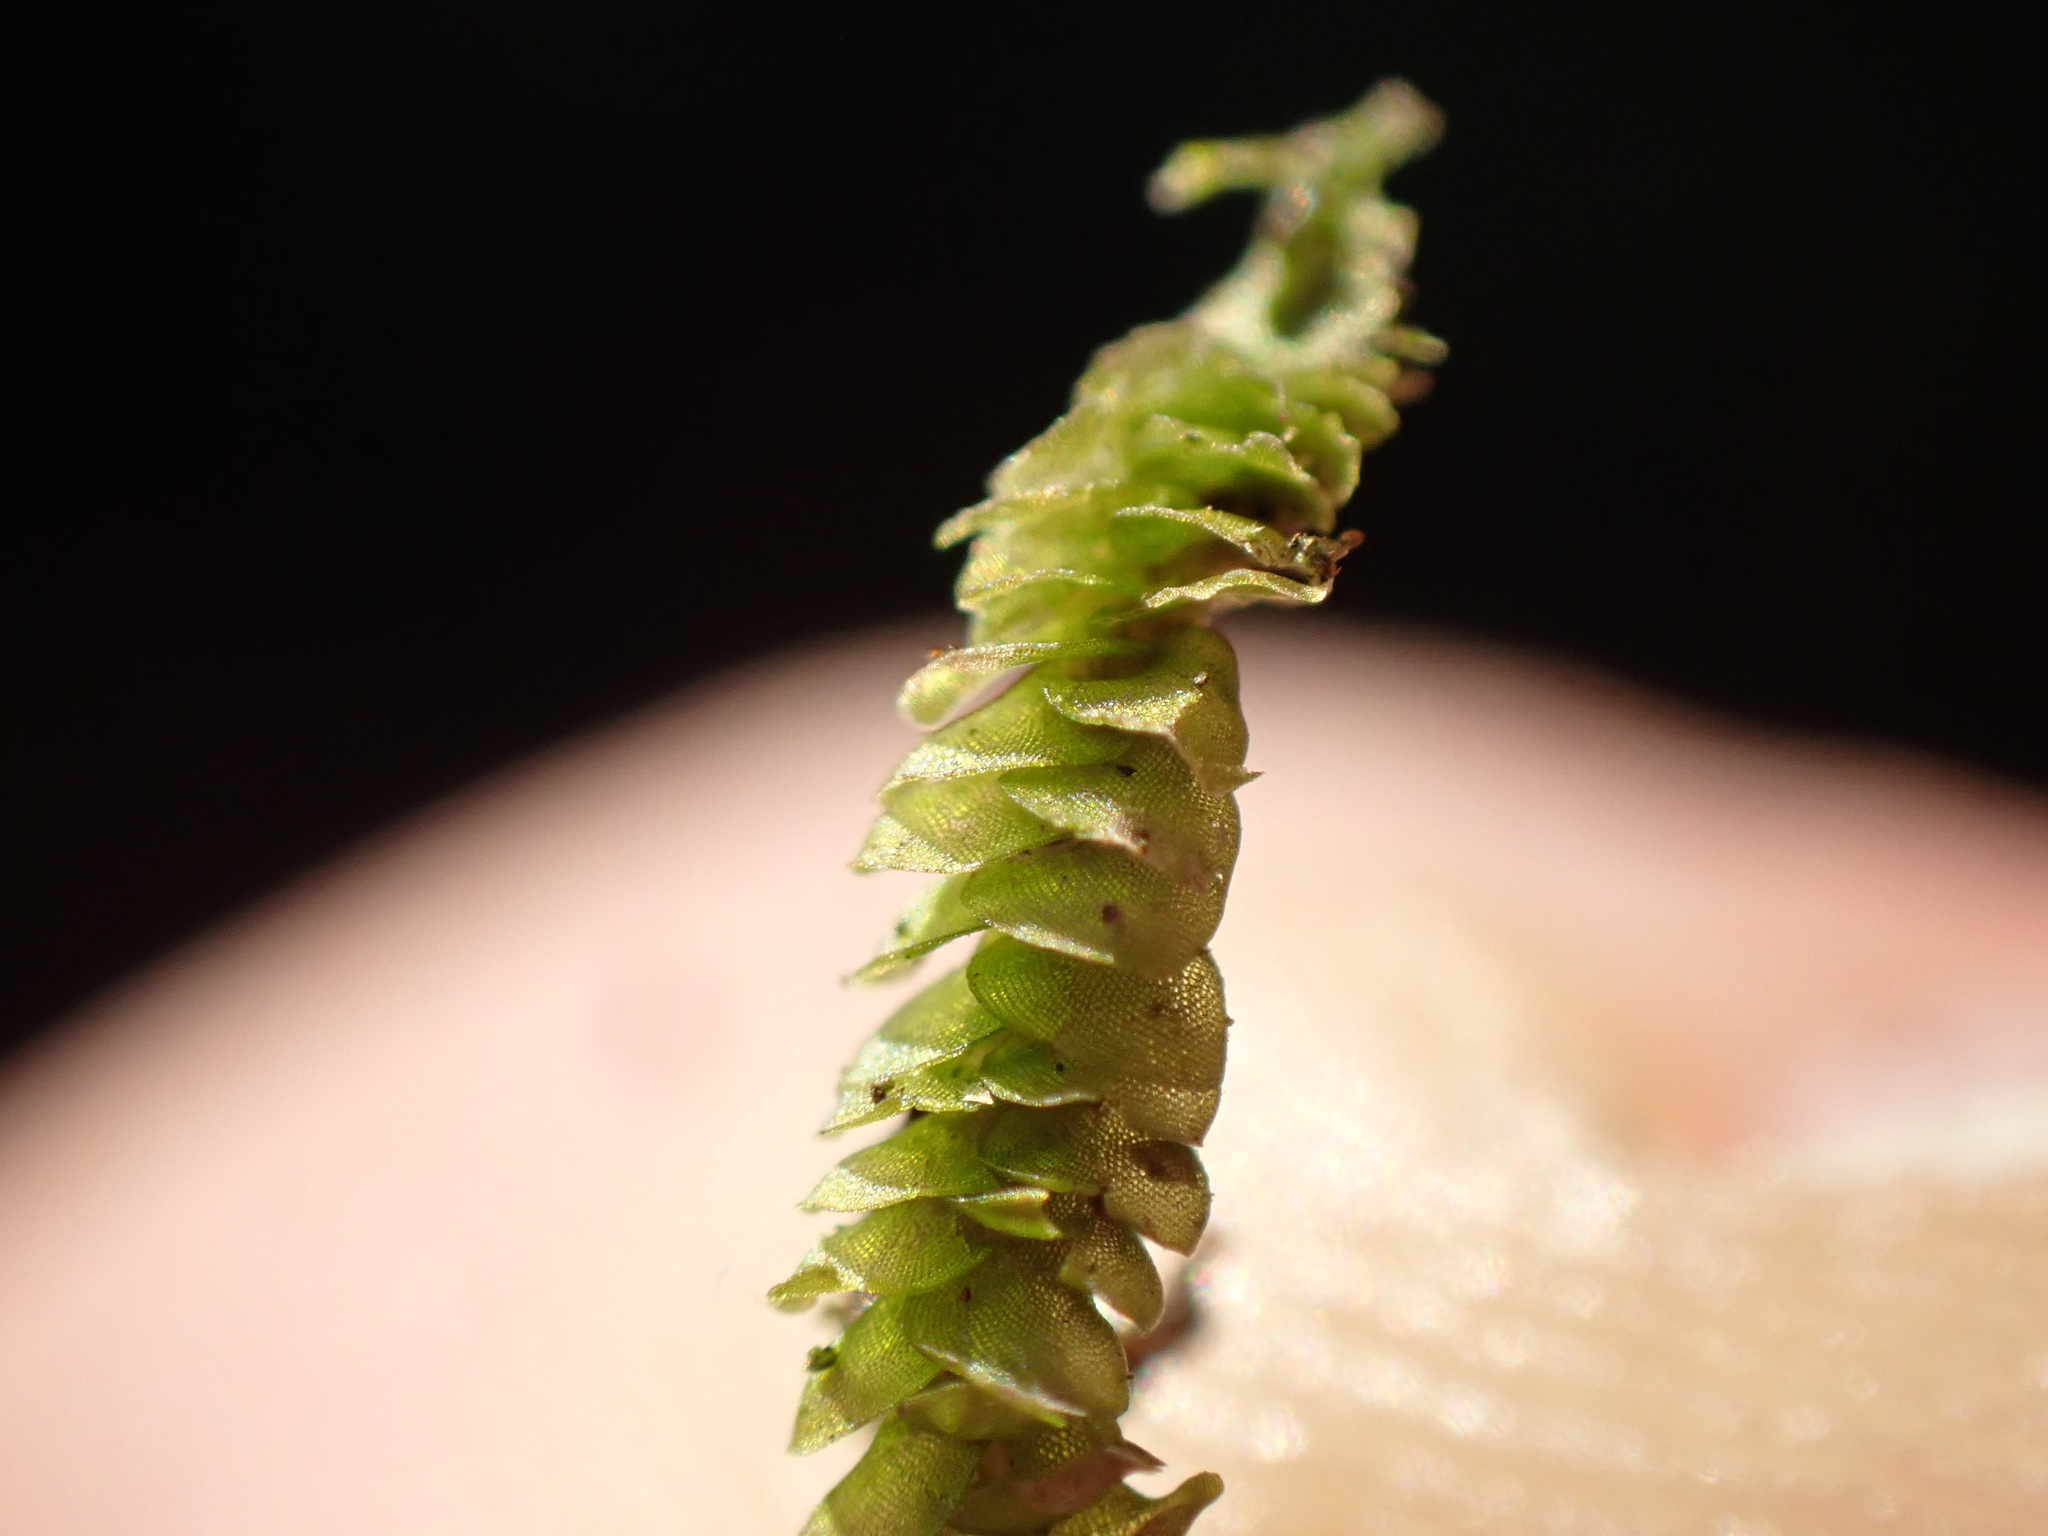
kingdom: Plantae
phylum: Marchantiophyta
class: Jungermanniopsida
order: Porellales
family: Lejeuneaceae
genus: Acrolejeunea
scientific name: Acrolejeunea sandvicensis
